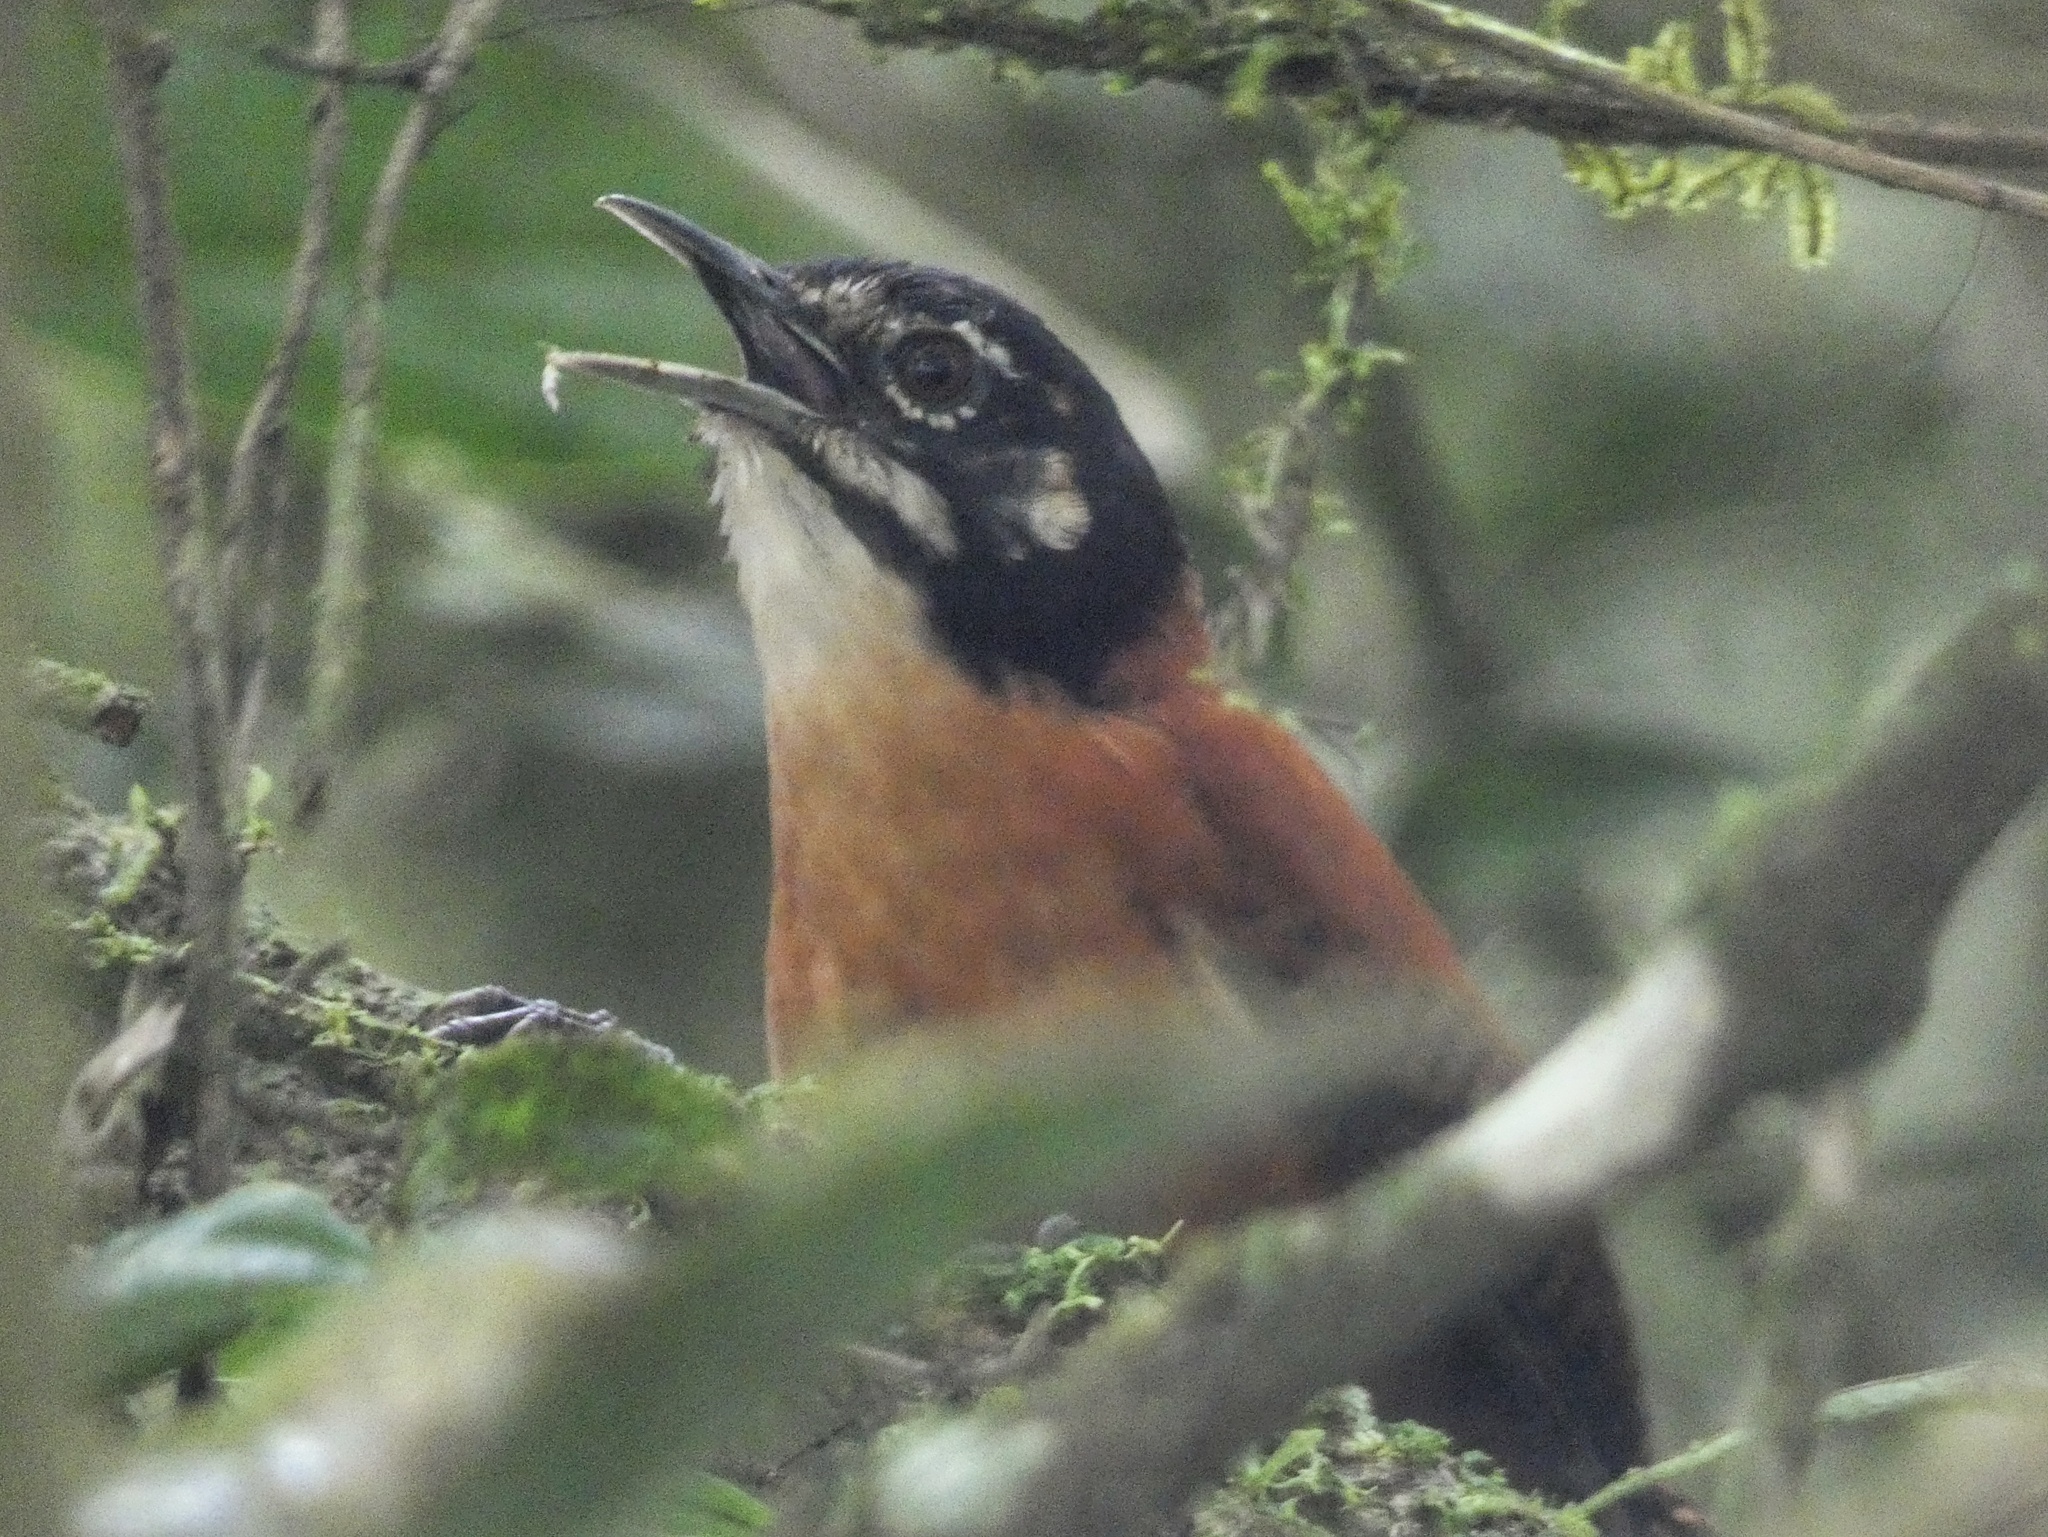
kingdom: Animalia
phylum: Chordata
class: Aves
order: Passeriformes
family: Troglodytidae
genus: Cantorchilus
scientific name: Cantorchilus nigricapillus
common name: Bay wren
